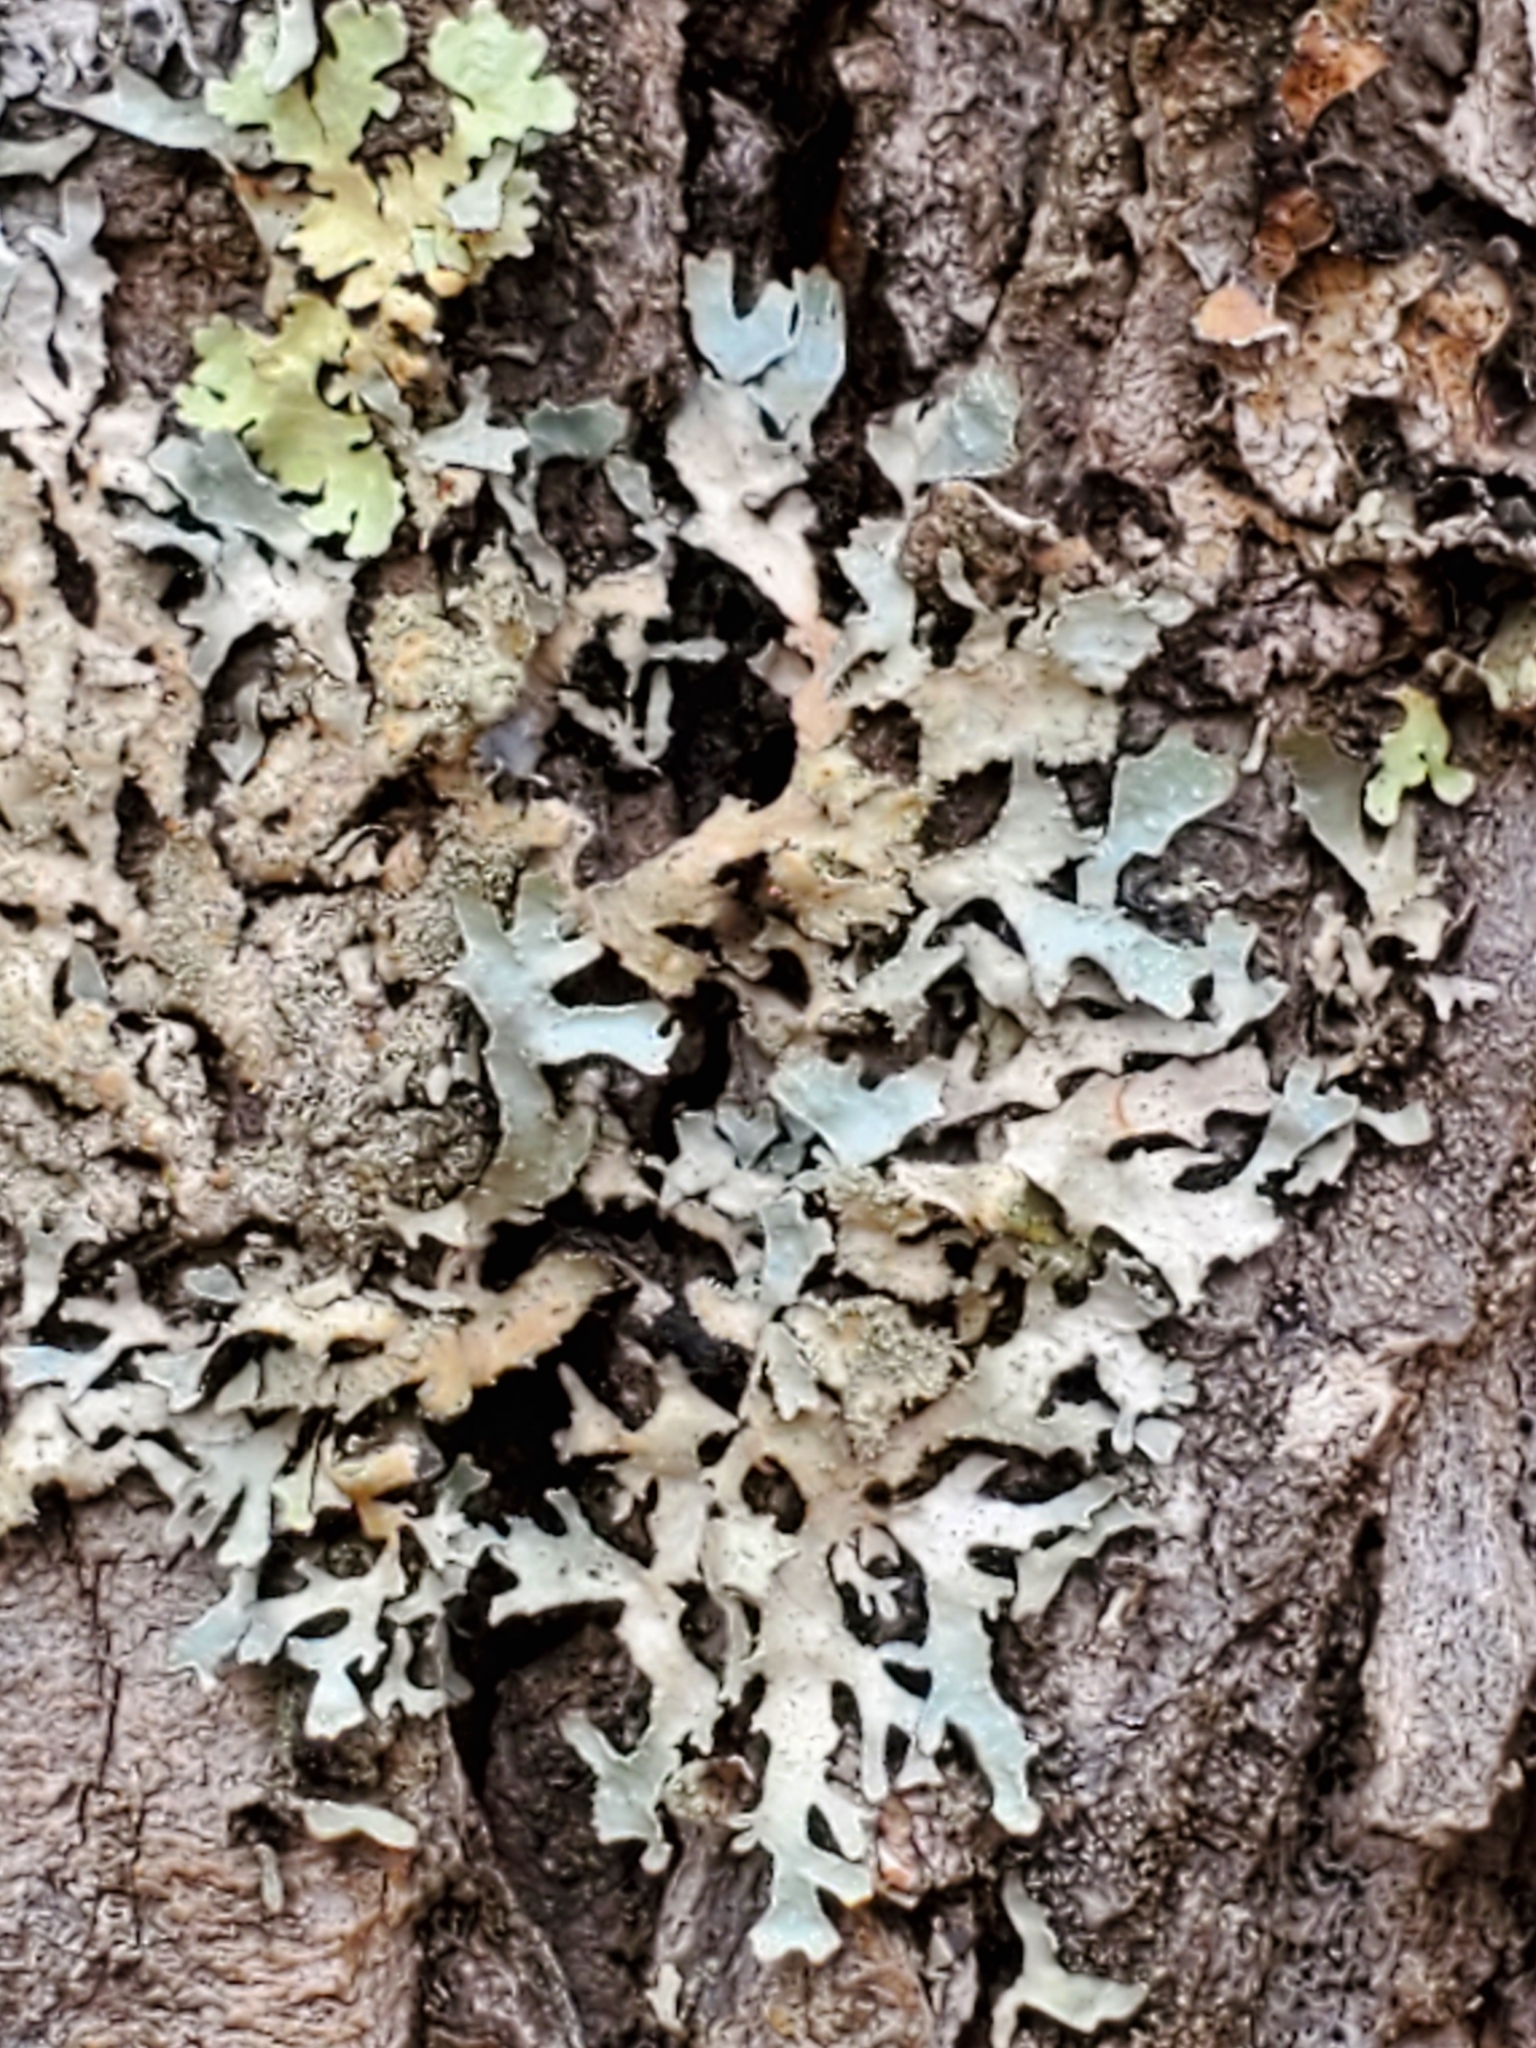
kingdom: Fungi
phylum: Ascomycota
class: Lecanoromycetes
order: Lecanorales
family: Parmeliaceae
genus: Parmelia
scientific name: Parmelia squarrosa
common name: Bottle brush shield lichen
